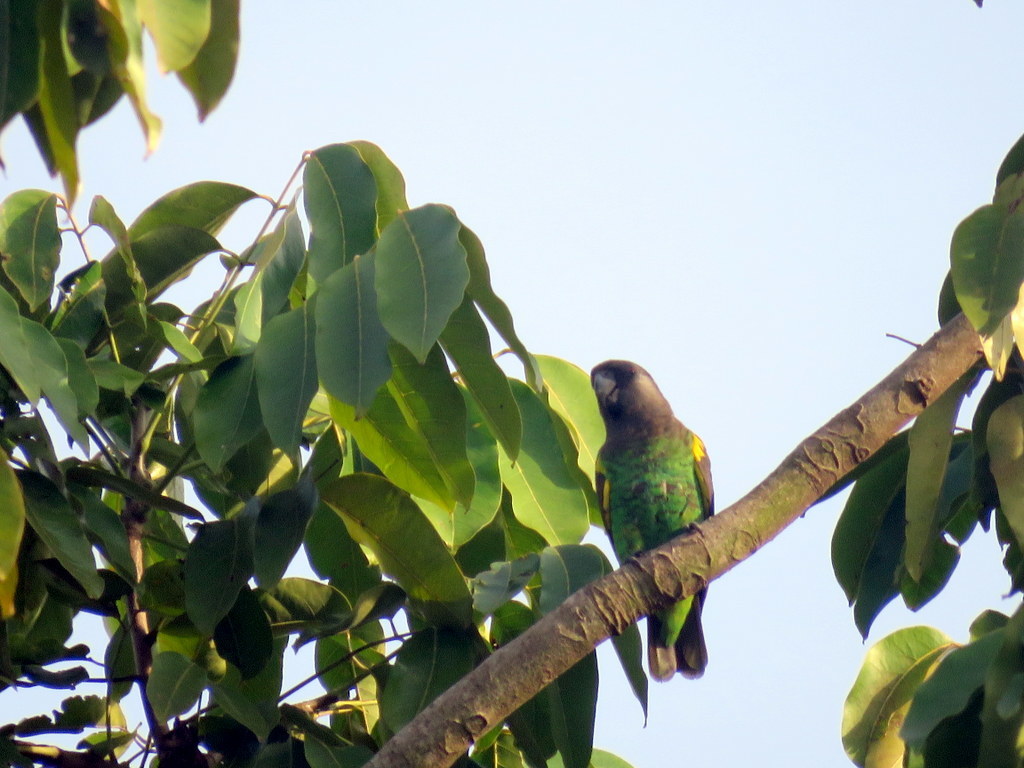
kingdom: Animalia
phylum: Chordata
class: Aves
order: Psittaciformes
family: Psittacidae
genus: Poicephalus
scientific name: Poicephalus meyeri
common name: Meyer's parrot
